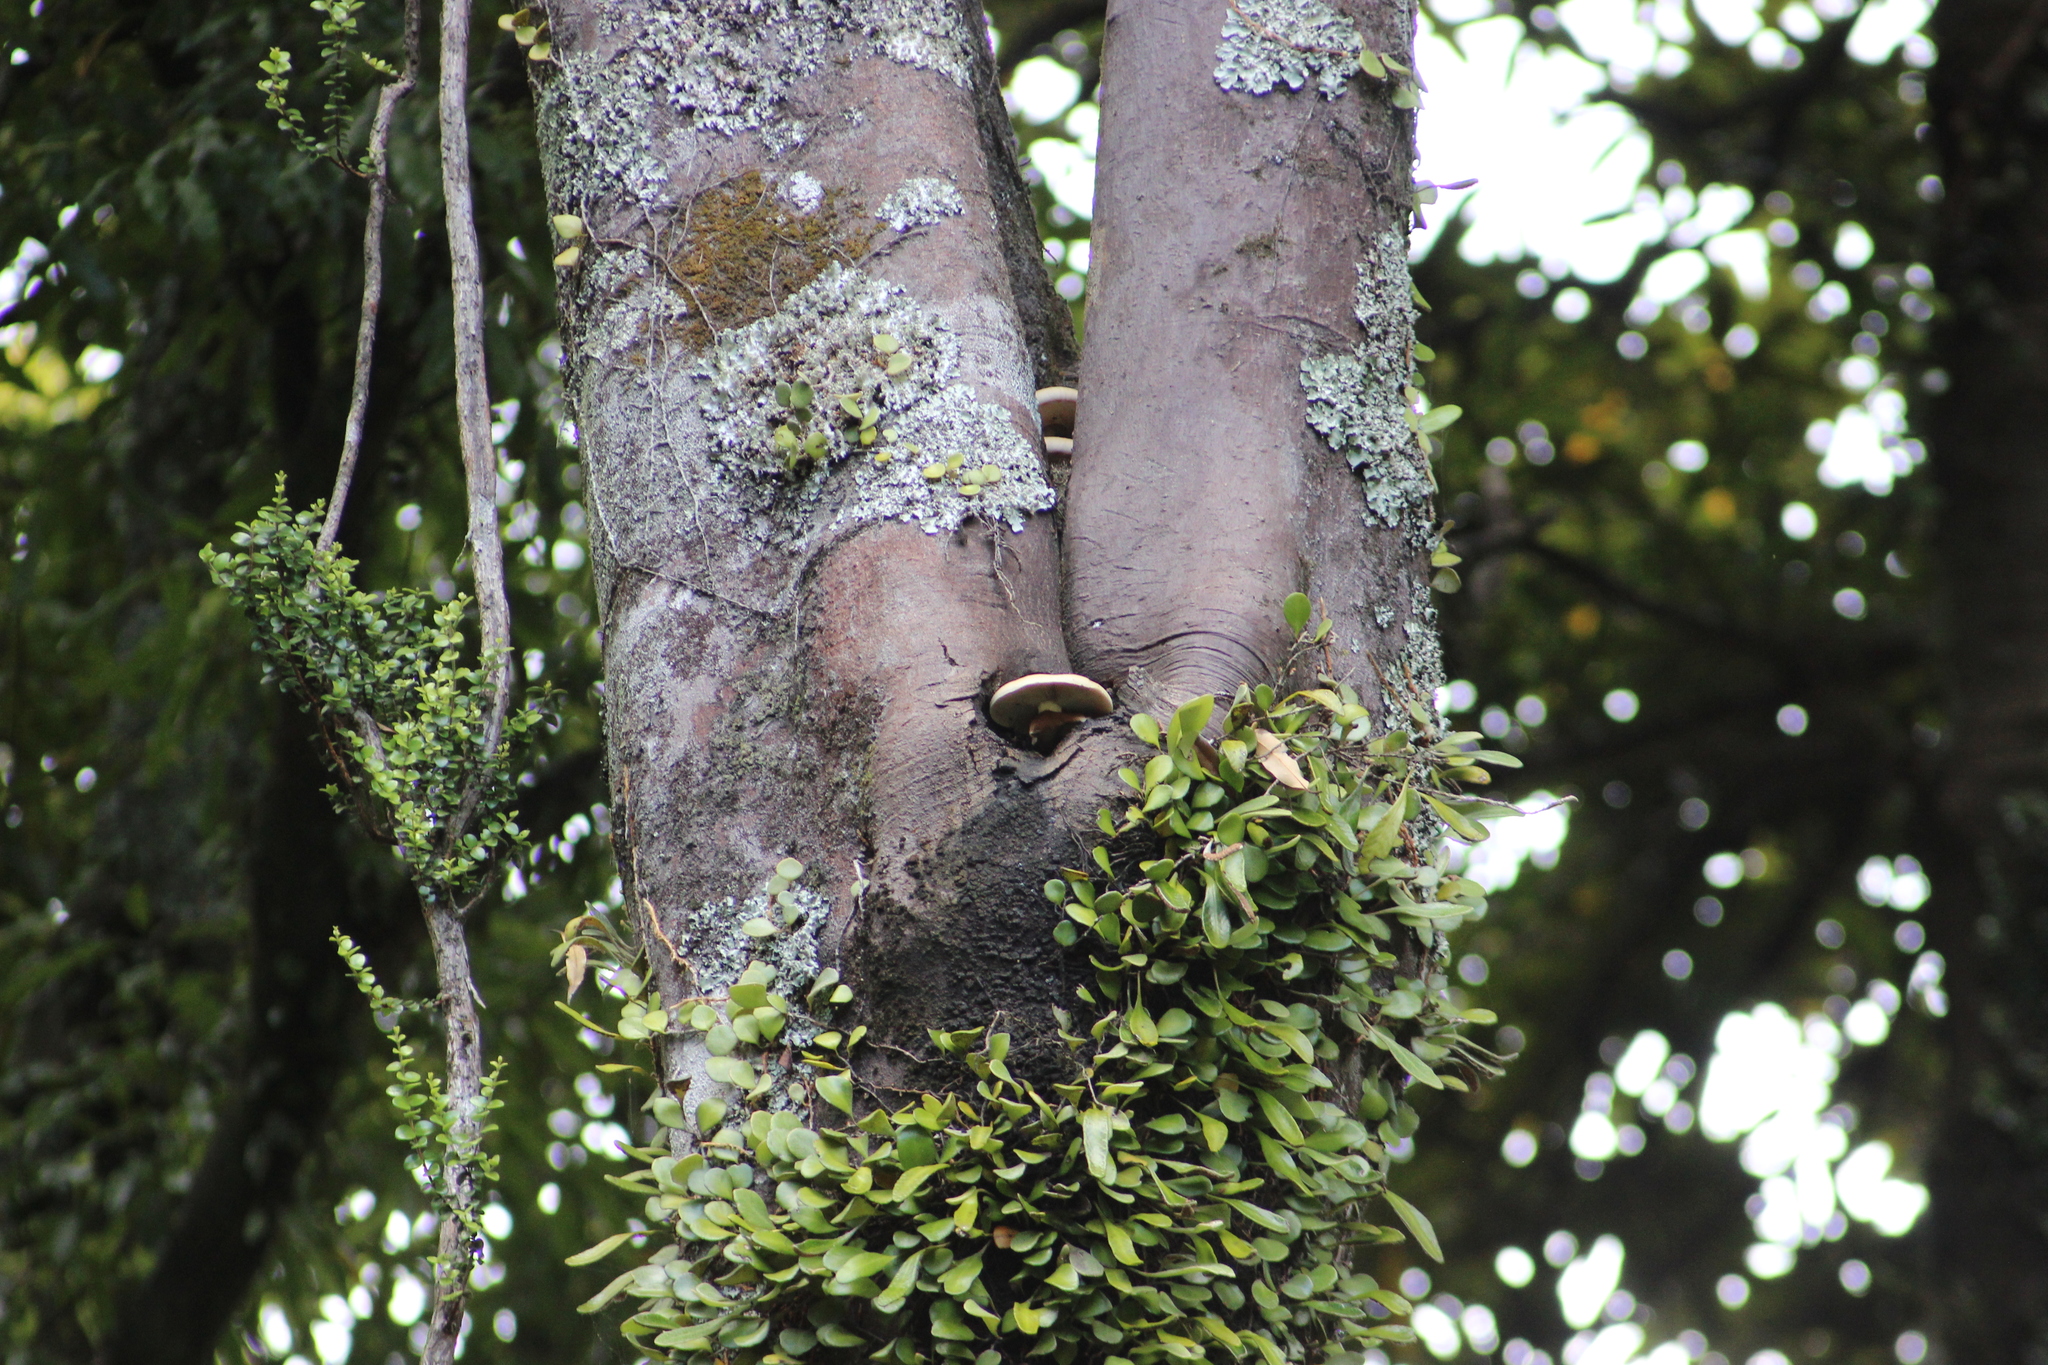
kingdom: Fungi
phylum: Basidiomycota
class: Agaricomycetes
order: Agaricales
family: Tubariaceae
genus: Cyclocybe
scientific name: Cyclocybe parasitica
